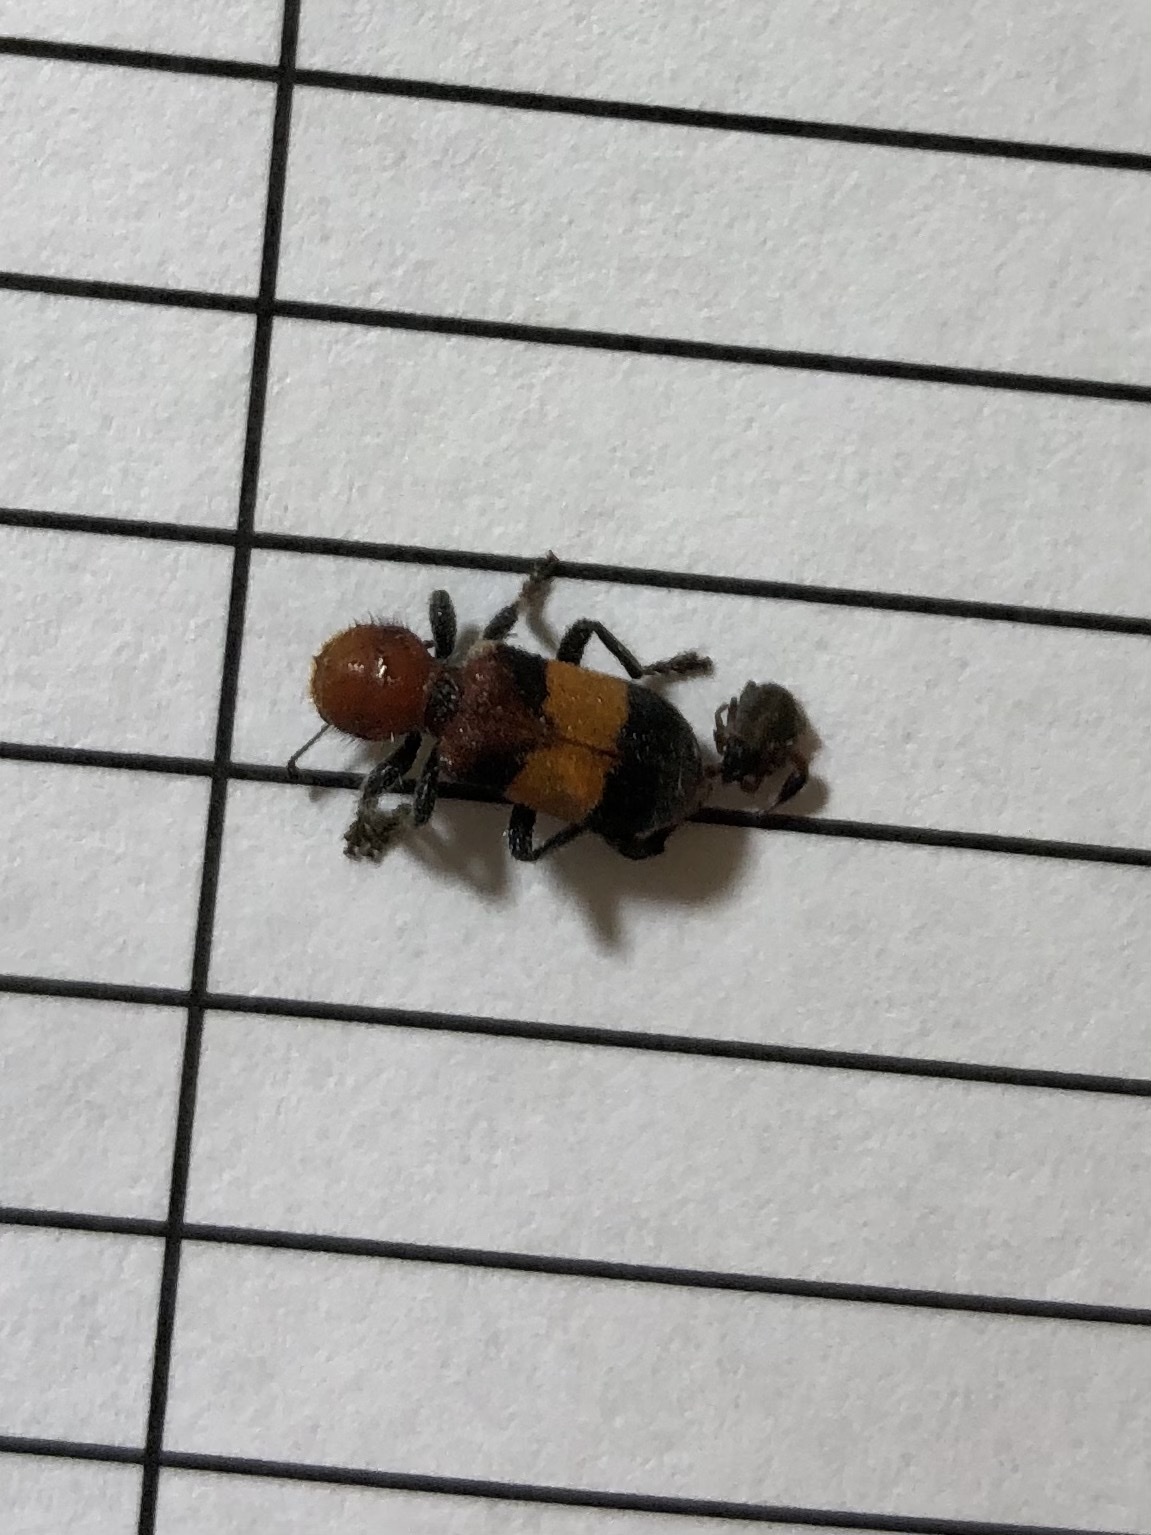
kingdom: Animalia
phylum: Arthropoda
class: Insecta
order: Coleoptera
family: Cleridae
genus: Enoclerus
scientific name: Enoclerus ichneumoneus
